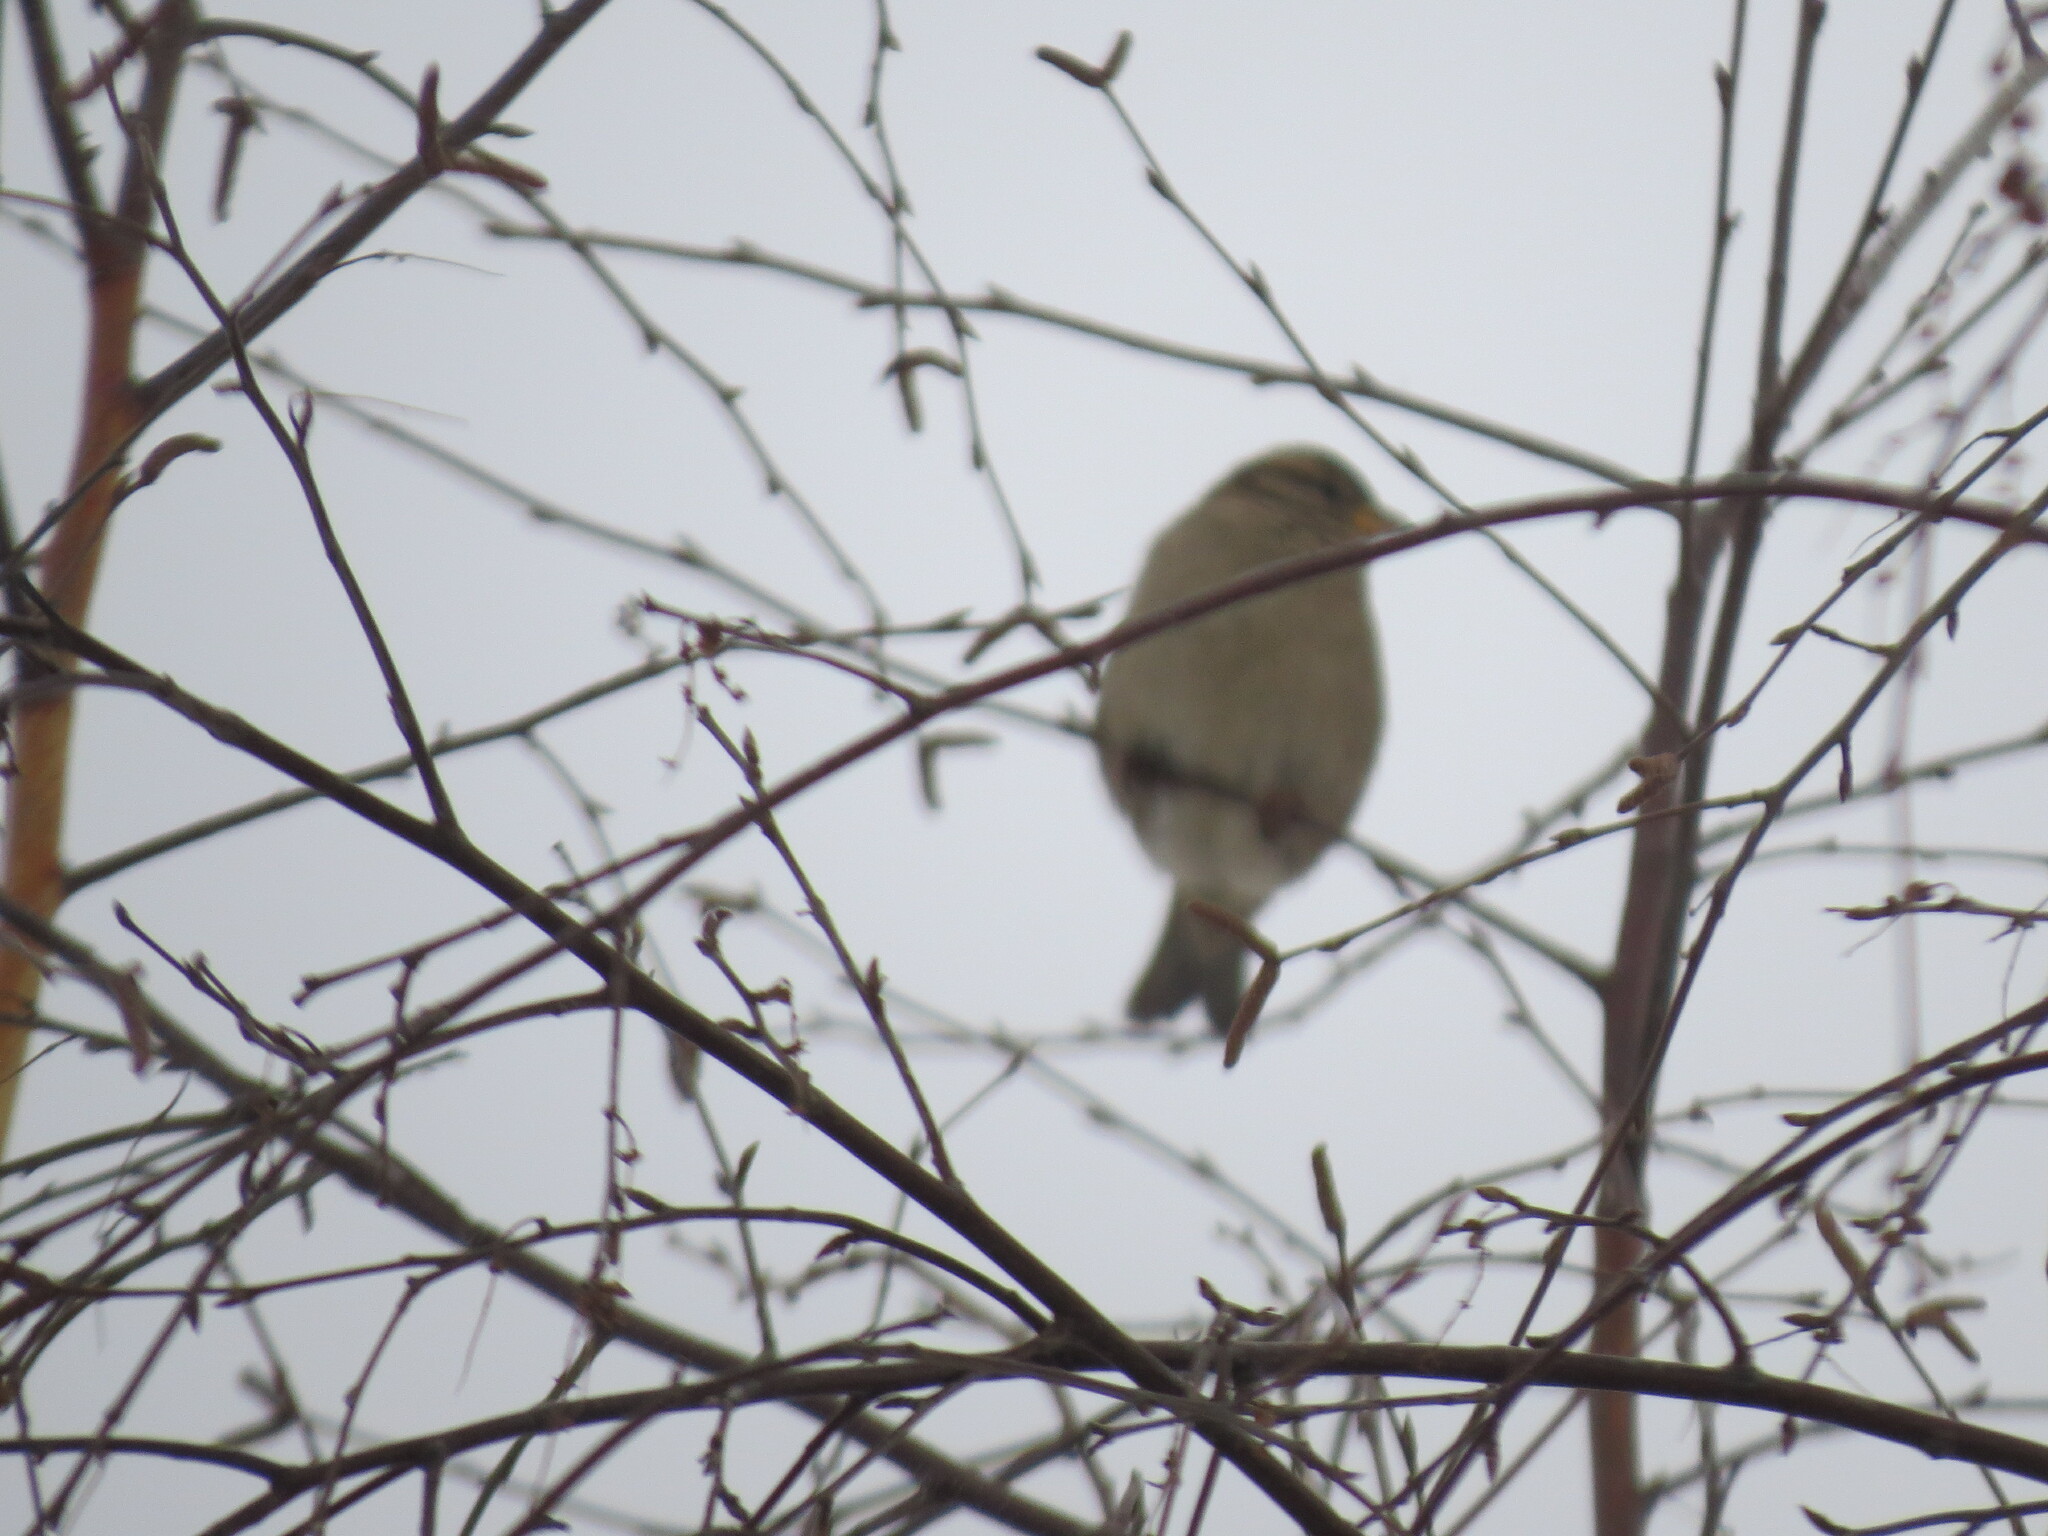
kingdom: Animalia
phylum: Chordata
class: Aves
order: Passeriformes
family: Passeridae
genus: Passer
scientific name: Passer domesticus
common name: House sparrow
